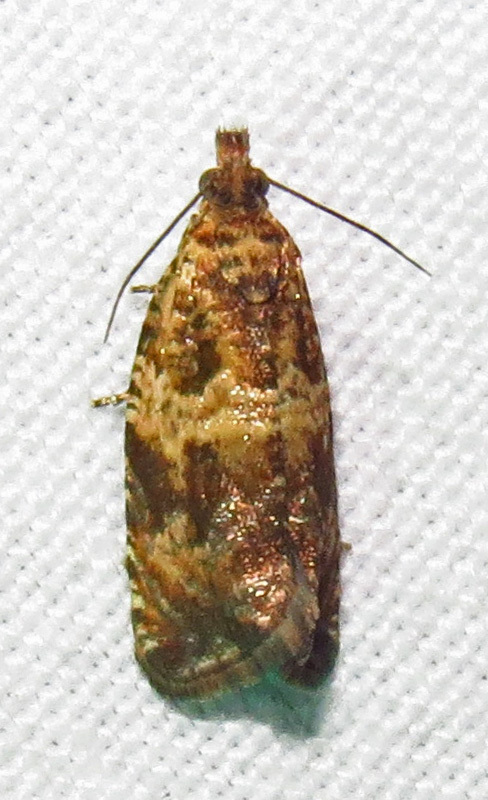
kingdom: Animalia
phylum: Arthropoda
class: Insecta
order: Lepidoptera
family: Tortricidae
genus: Celypha
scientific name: Celypha cespitana
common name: Thyme marble
